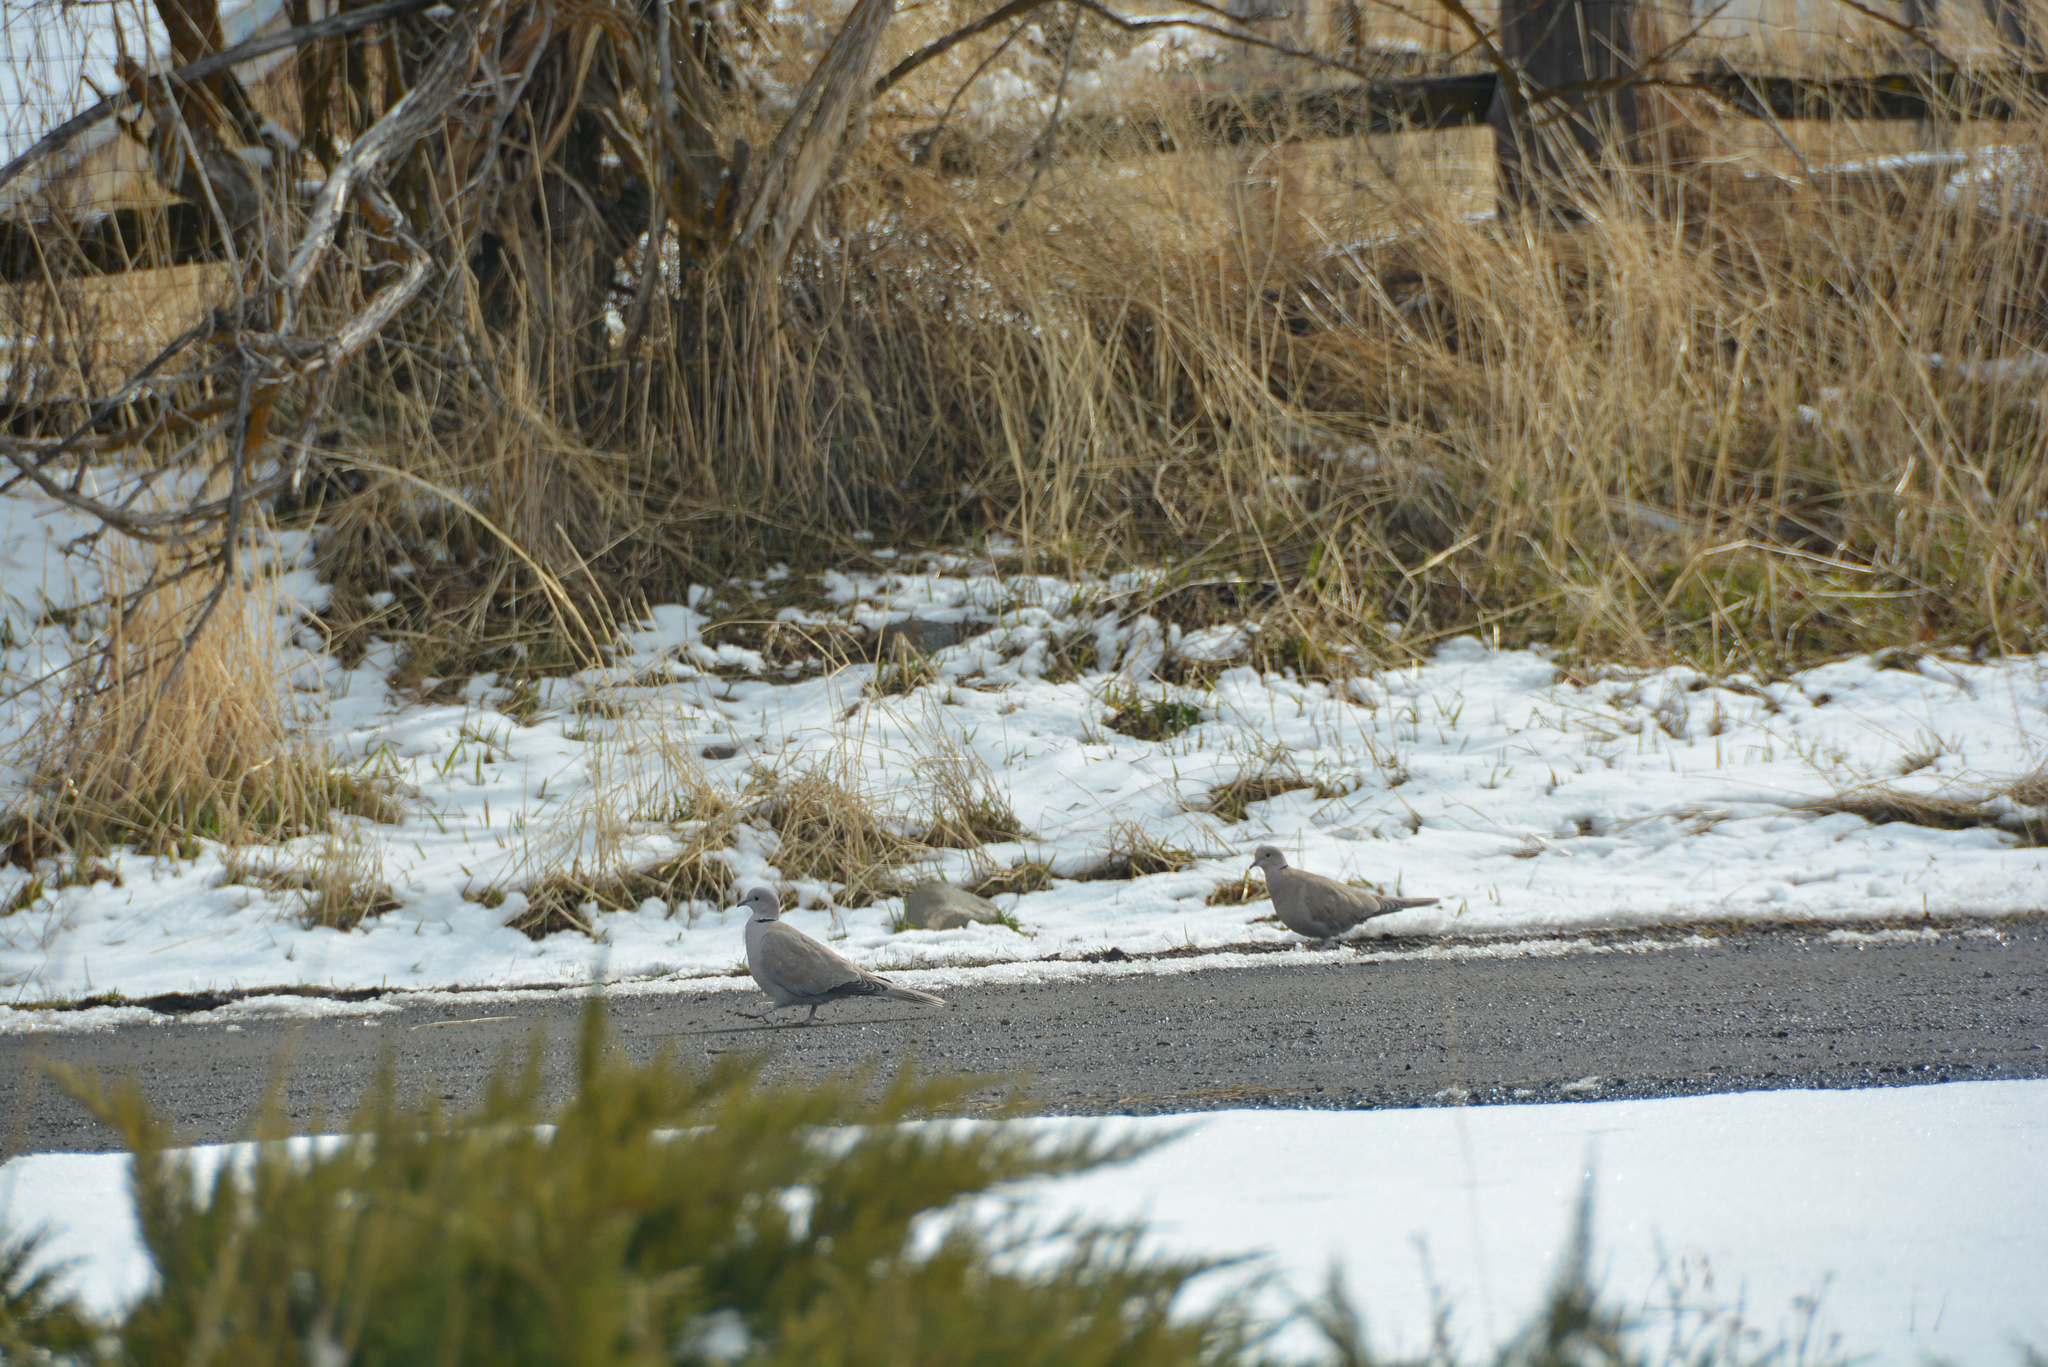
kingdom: Animalia
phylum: Chordata
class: Aves
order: Columbiformes
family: Columbidae
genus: Streptopelia
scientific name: Streptopelia decaocto
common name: Eurasian collared dove
